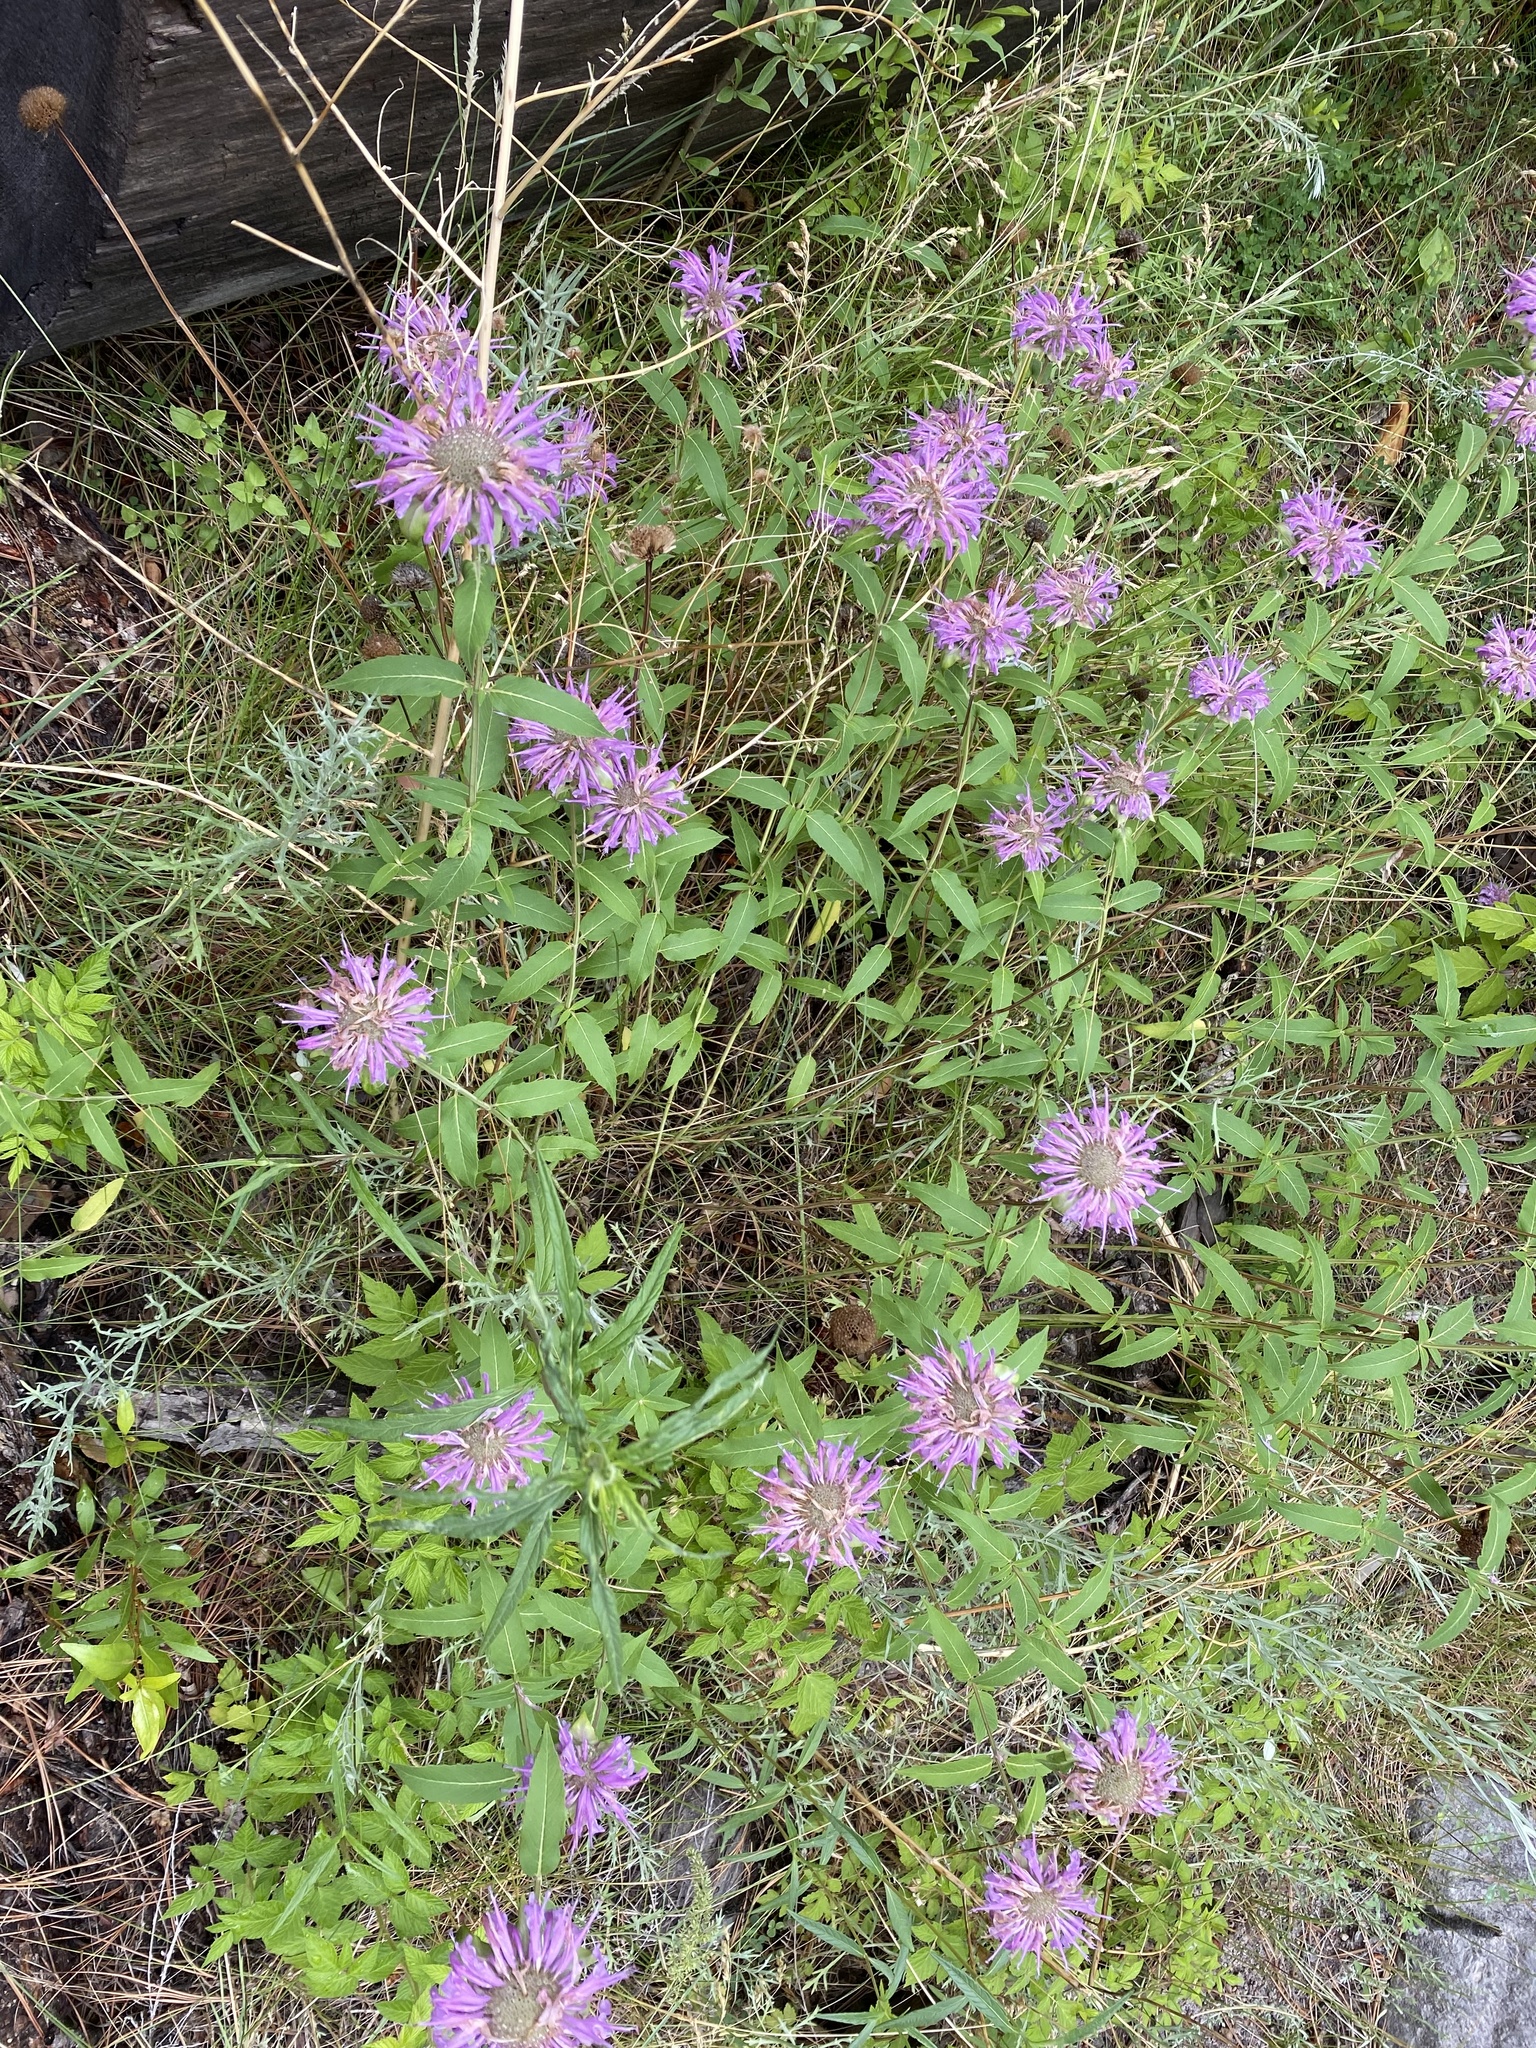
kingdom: Plantae
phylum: Tracheophyta
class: Magnoliopsida
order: Lamiales
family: Lamiaceae
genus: Monarda
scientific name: Monarda fistulosa
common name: Purple beebalm
